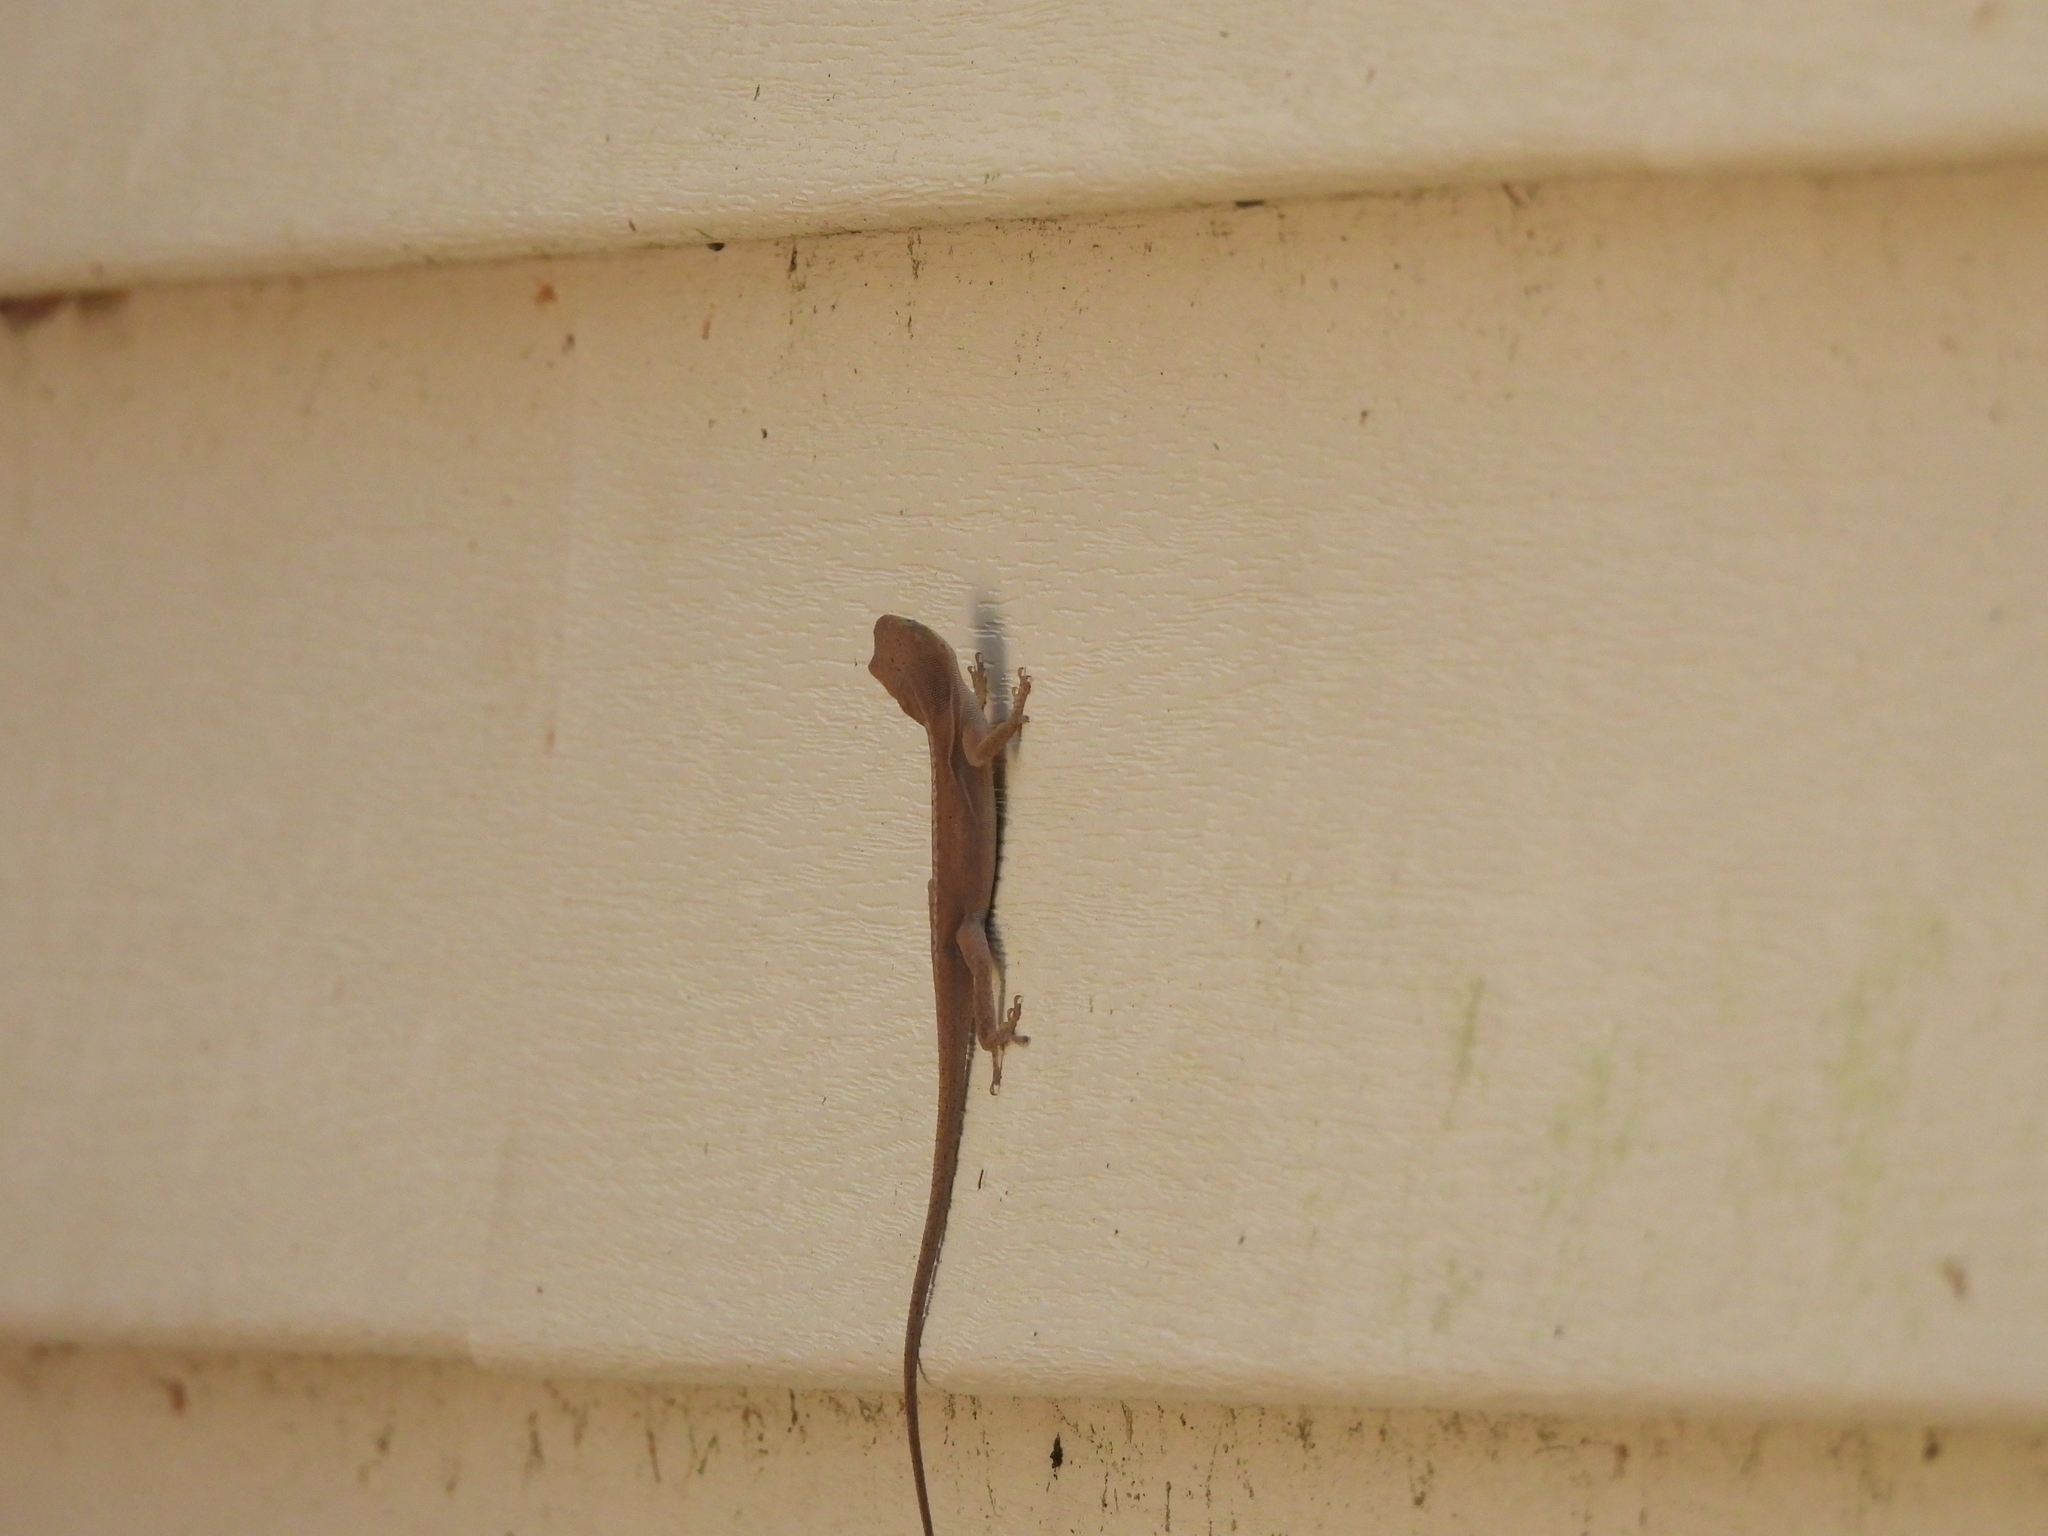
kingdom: Animalia
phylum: Chordata
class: Squamata
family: Dactyloidae
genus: Anolis
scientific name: Anolis carolinensis
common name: Green anole
